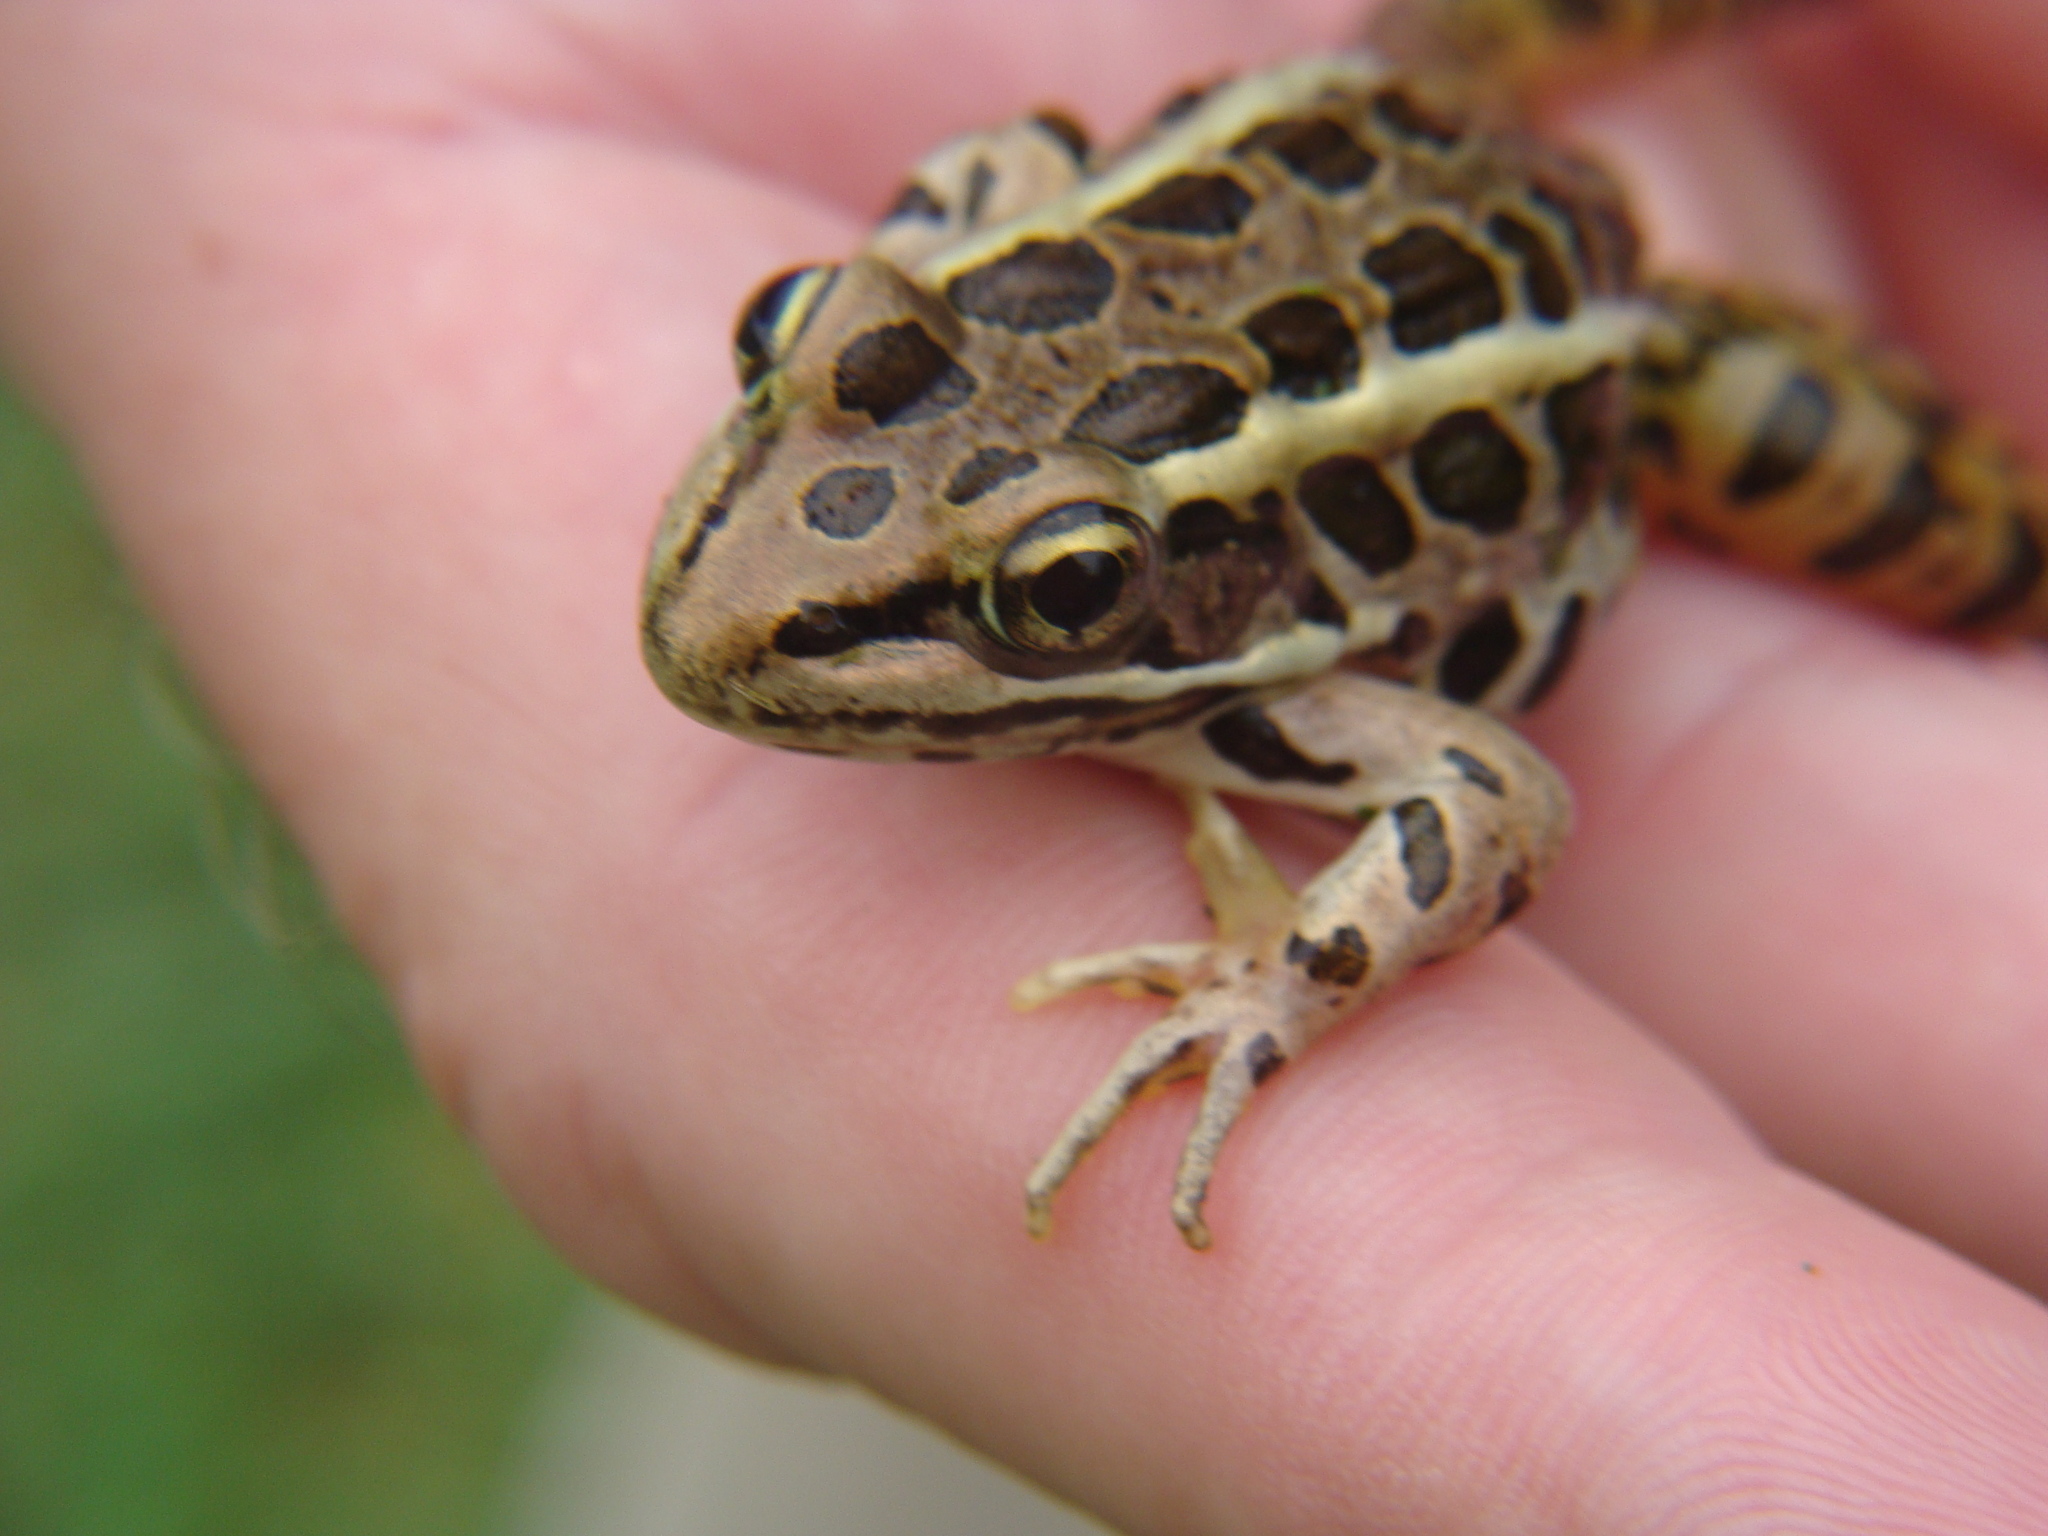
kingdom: Animalia
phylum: Chordata
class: Amphibia
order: Anura
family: Ranidae
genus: Lithobates
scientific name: Lithobates palustris
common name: Pickerel frog
